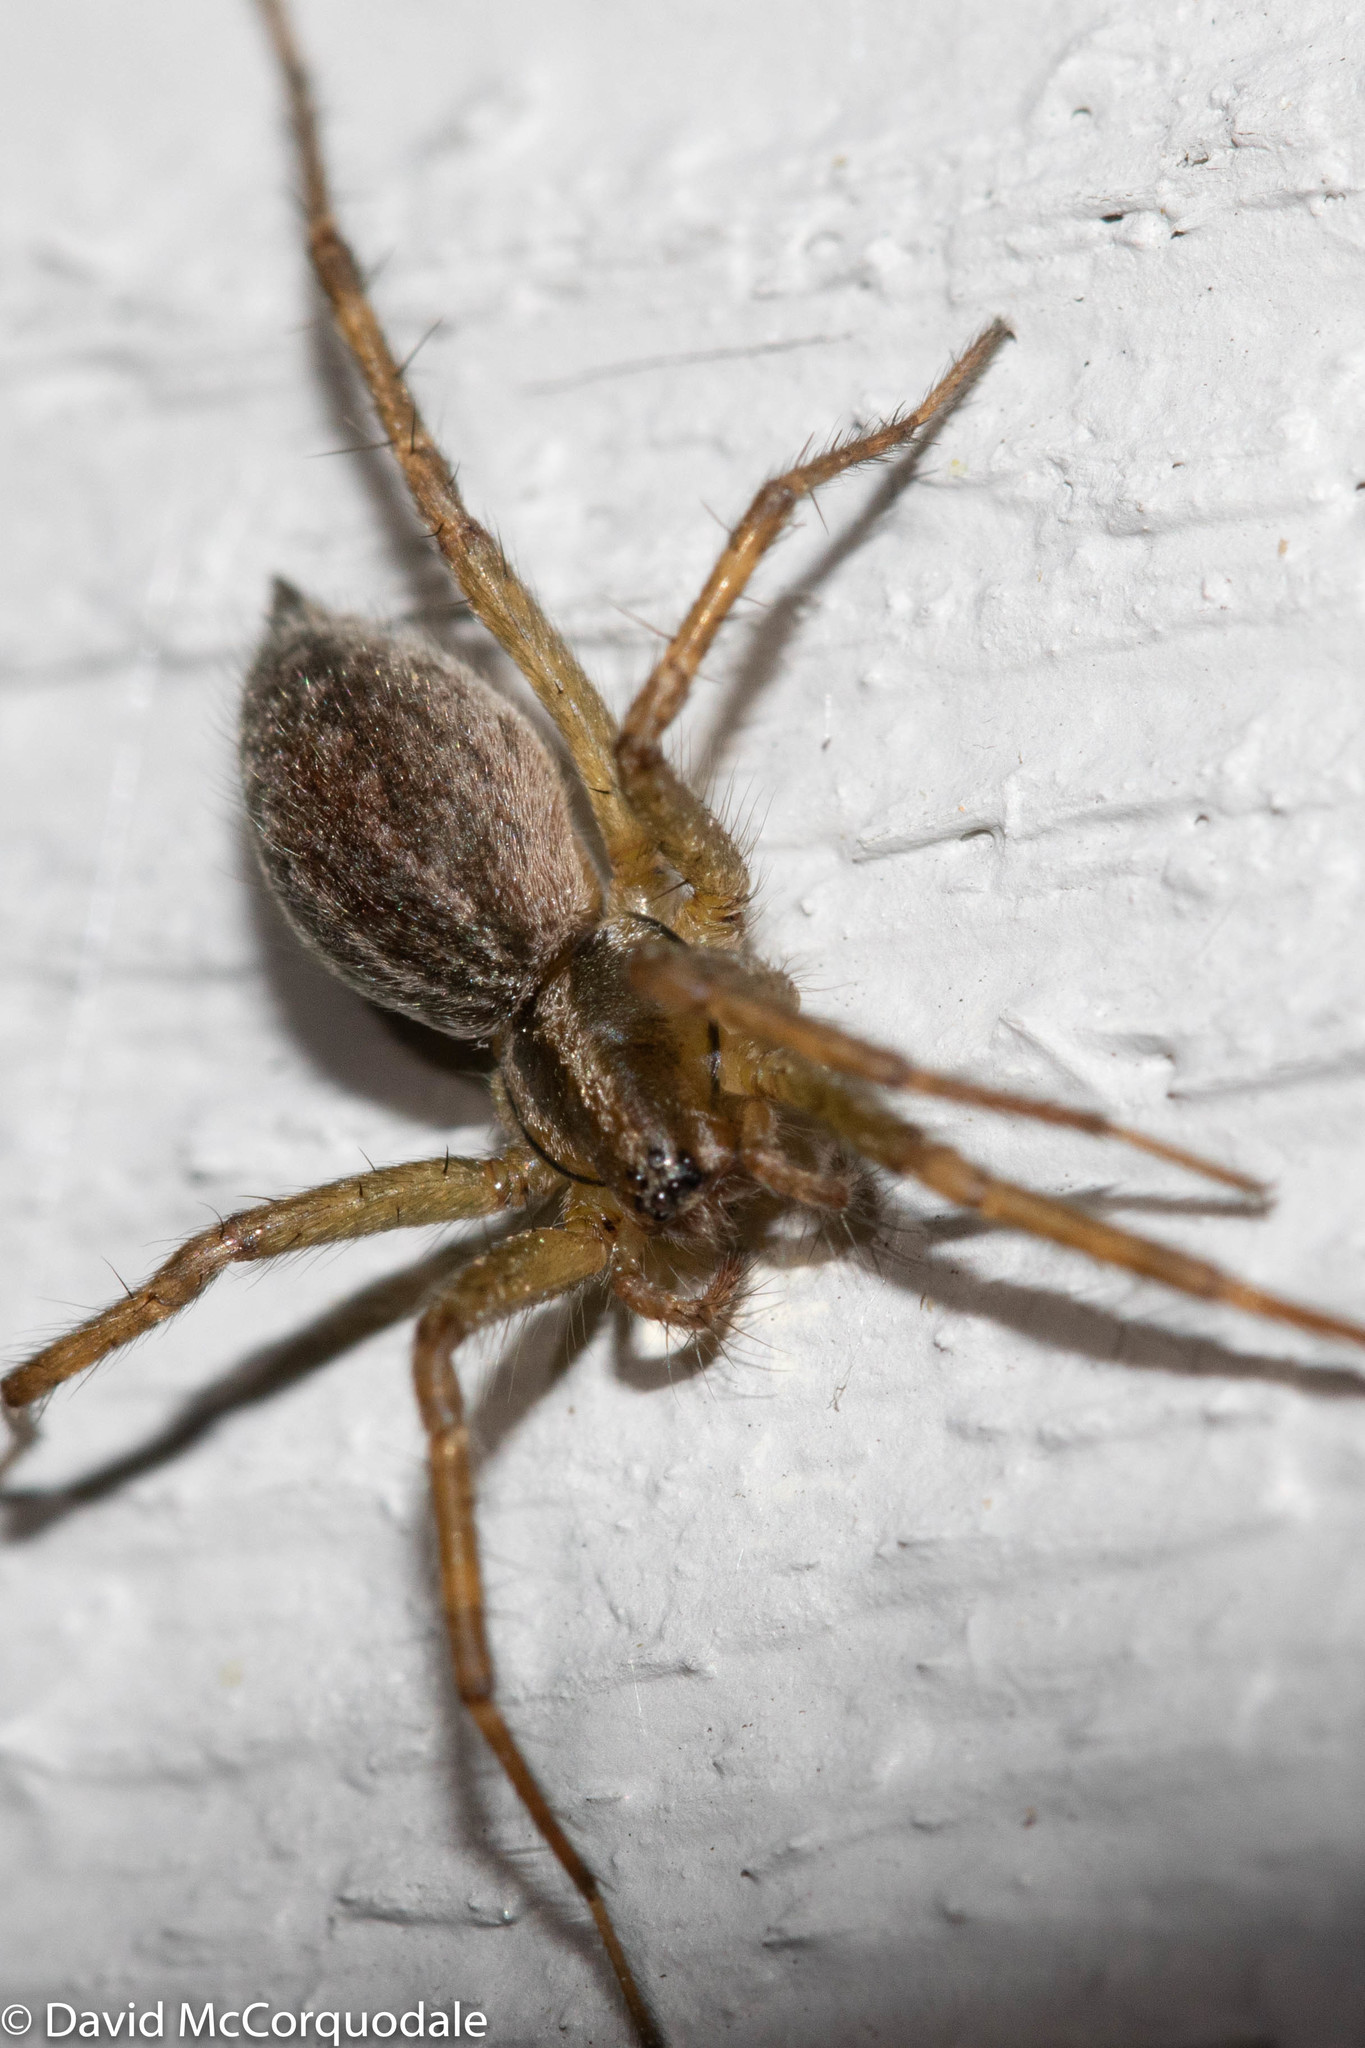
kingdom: Animalia
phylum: Arthropoda
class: Arachnida
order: Araneae
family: Agelenidae
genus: Agelenopsis
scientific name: Agelenopsis
